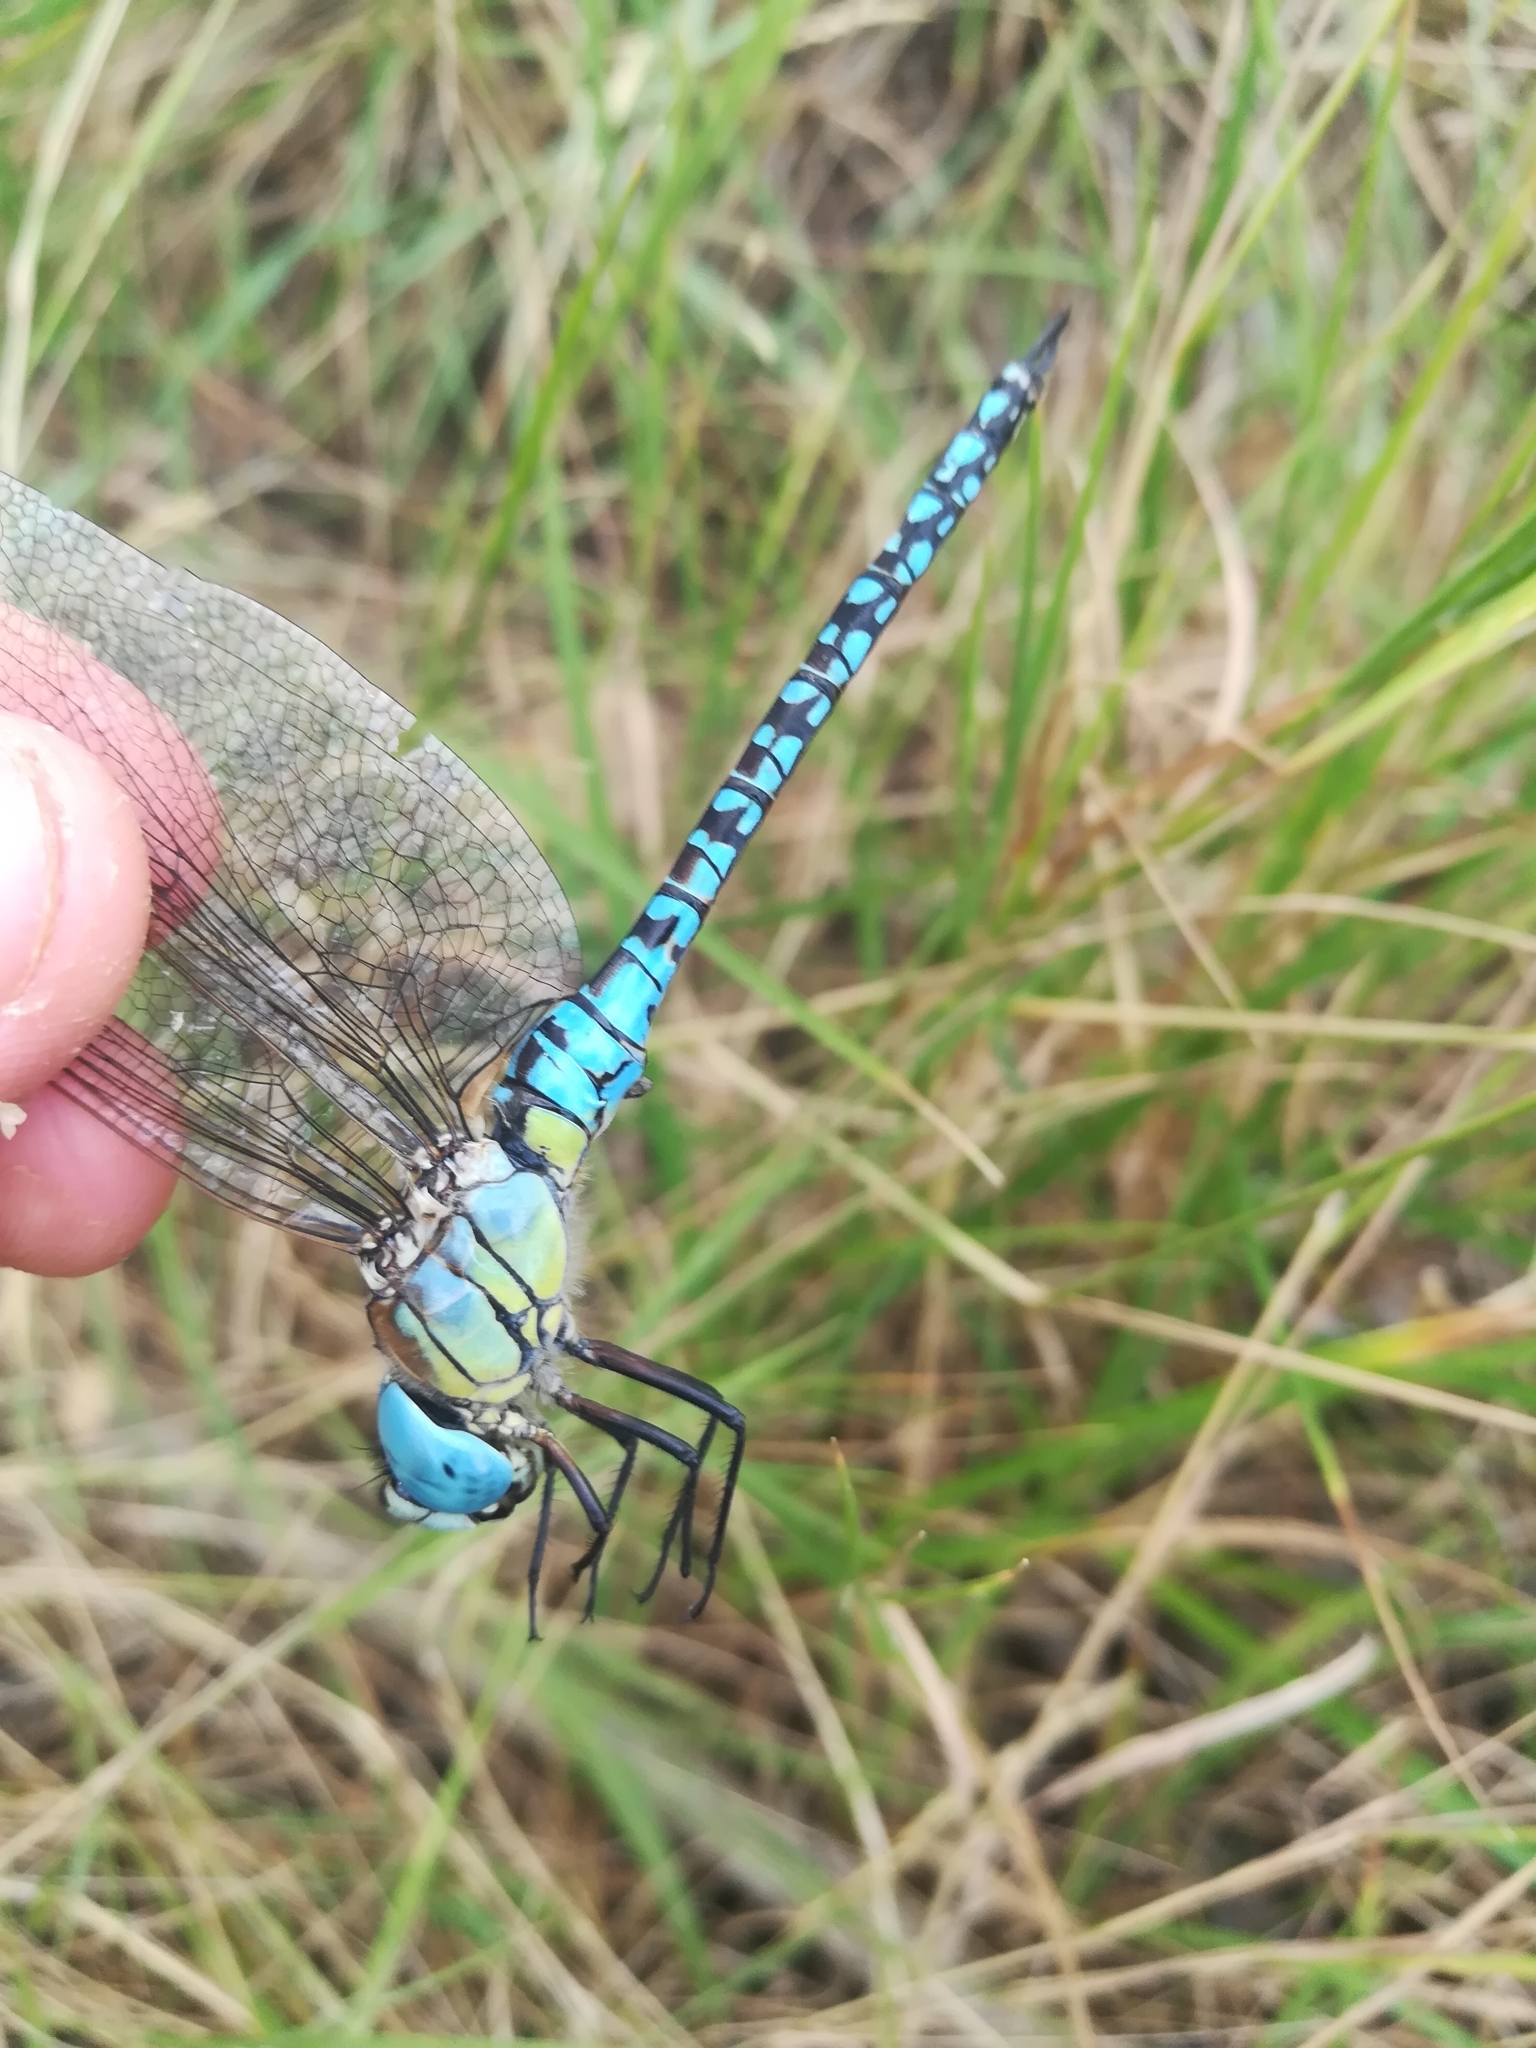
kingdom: Animalia
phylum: Arthropoda
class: Insecta
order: Odonata
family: Aeshnidae
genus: Aeshna
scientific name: Aeshna affinis
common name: Southern migrant hawker
